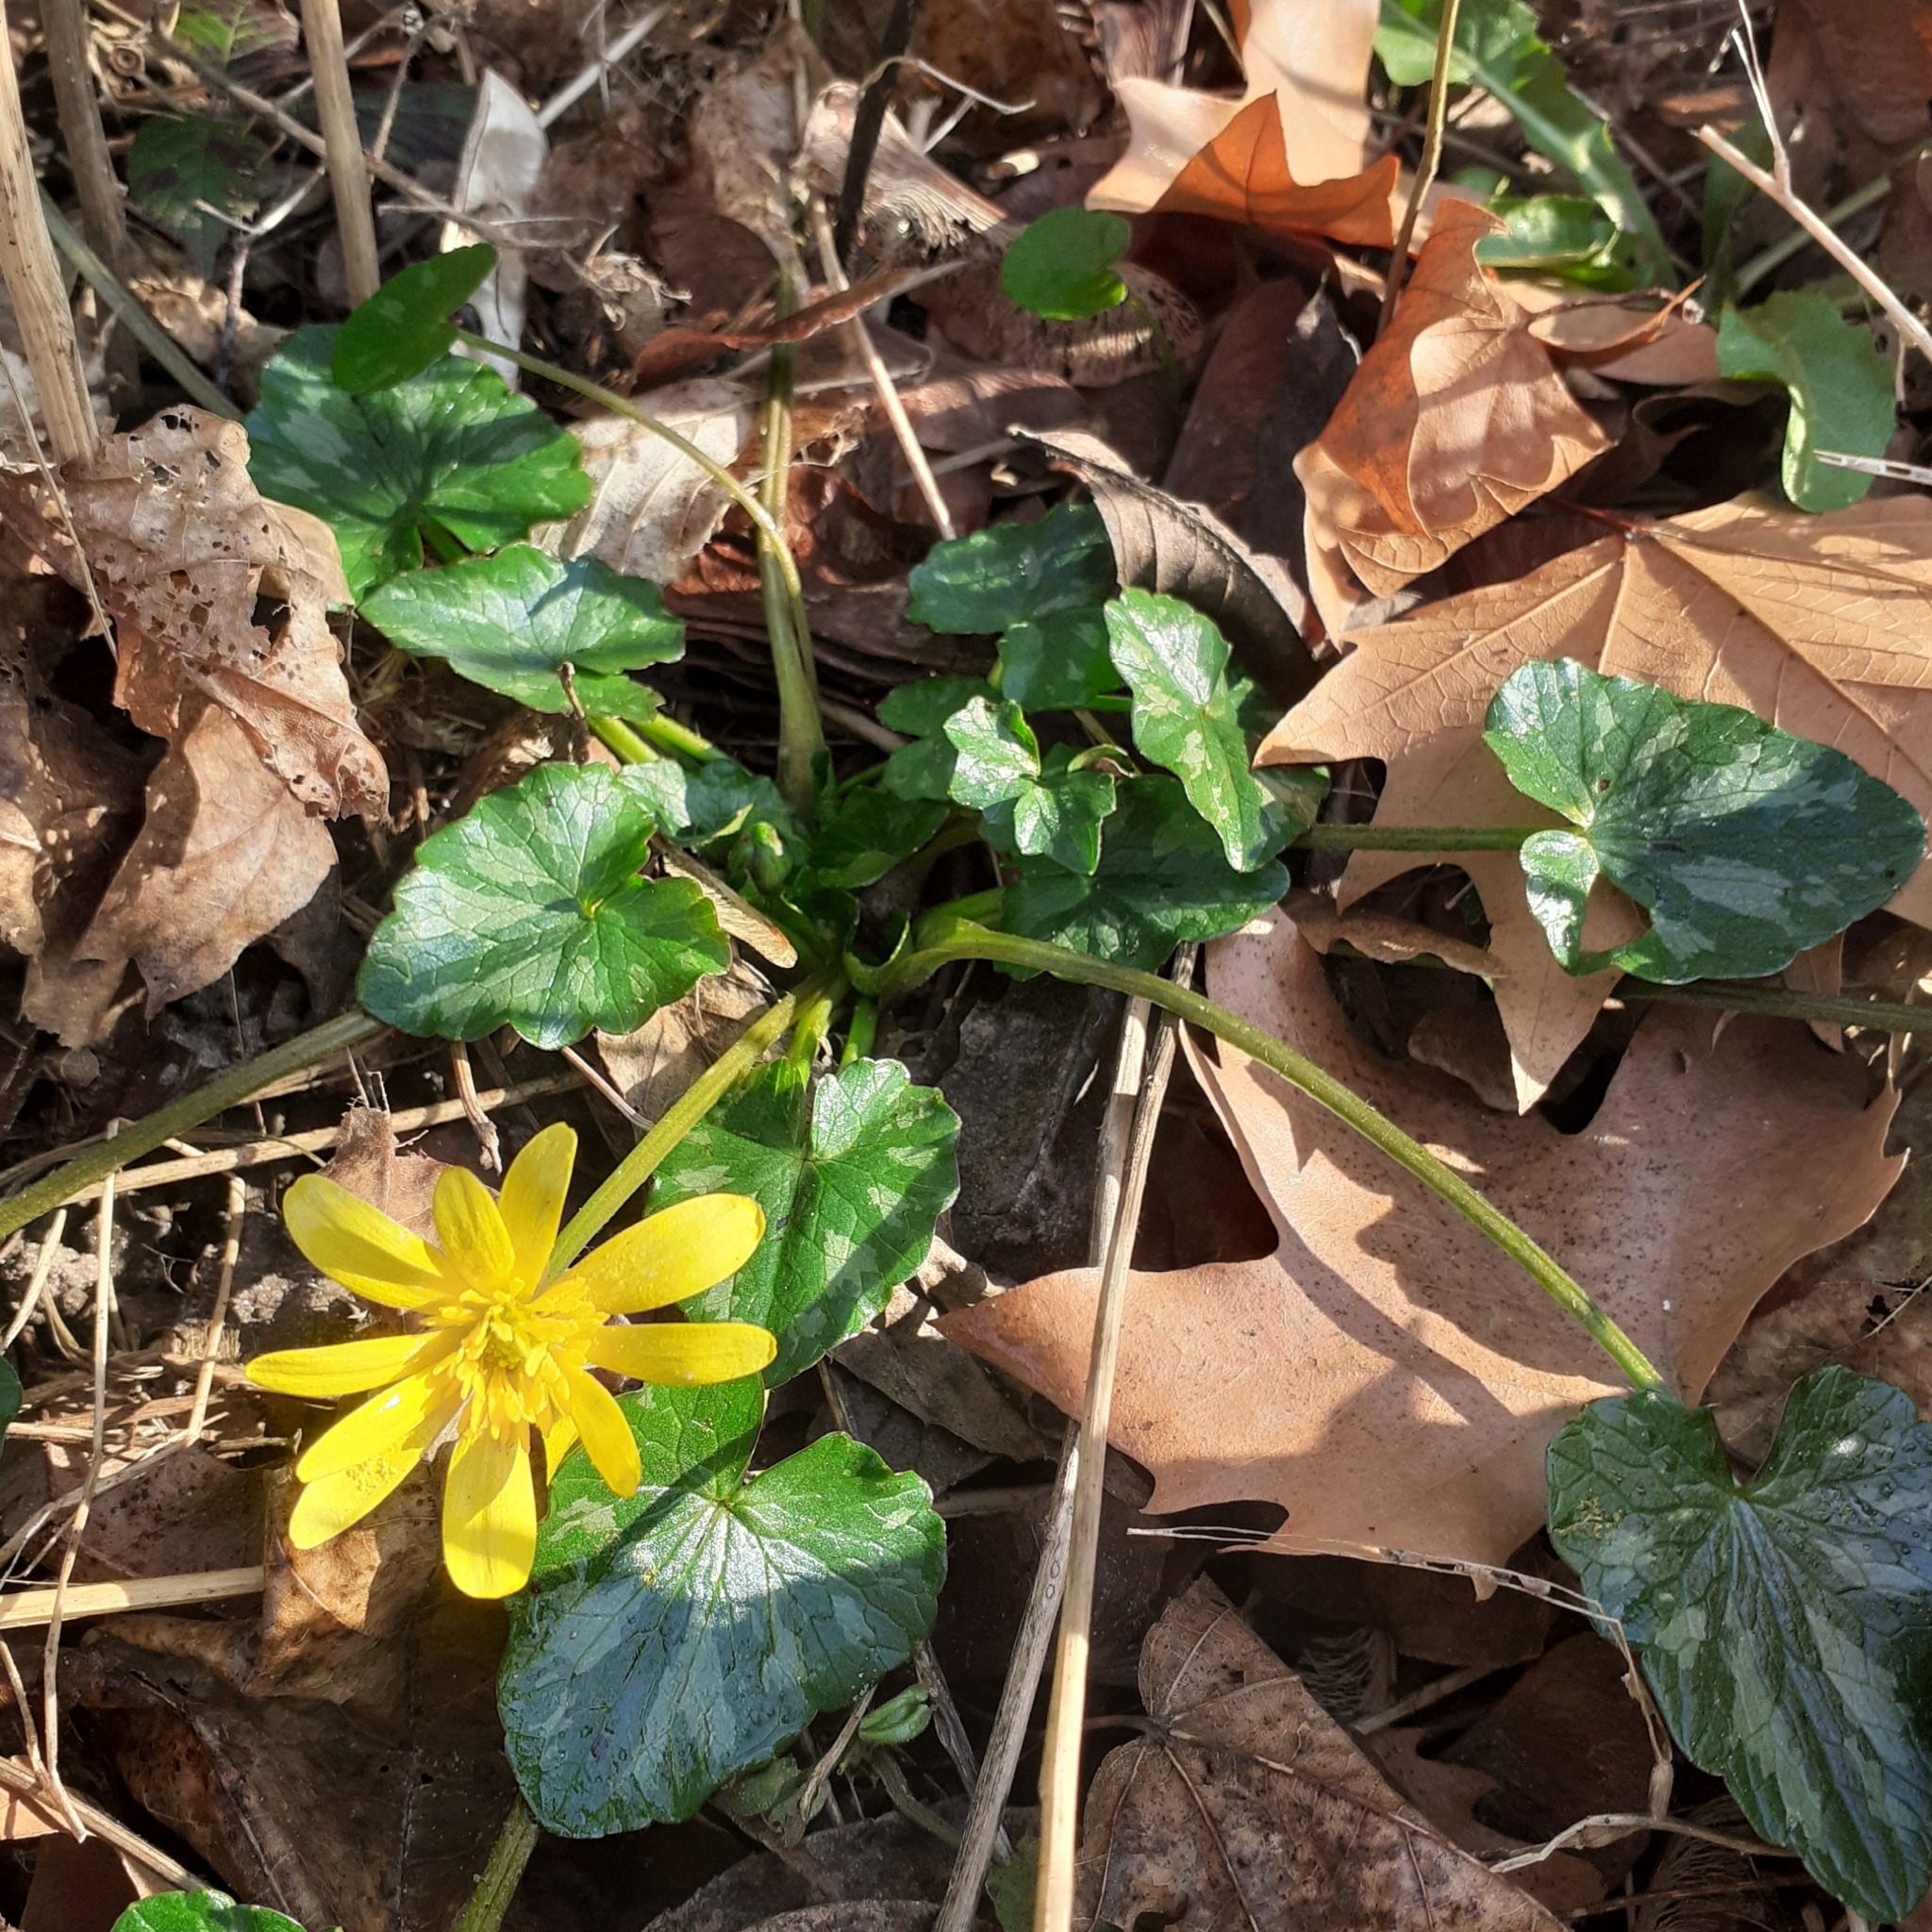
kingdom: Plantae
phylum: Tracheophyta
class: Magnoliopsida
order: Ranunculales
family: Ranunculaceae
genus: Ficaria
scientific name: Ficaria verna
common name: Lesser celandine
